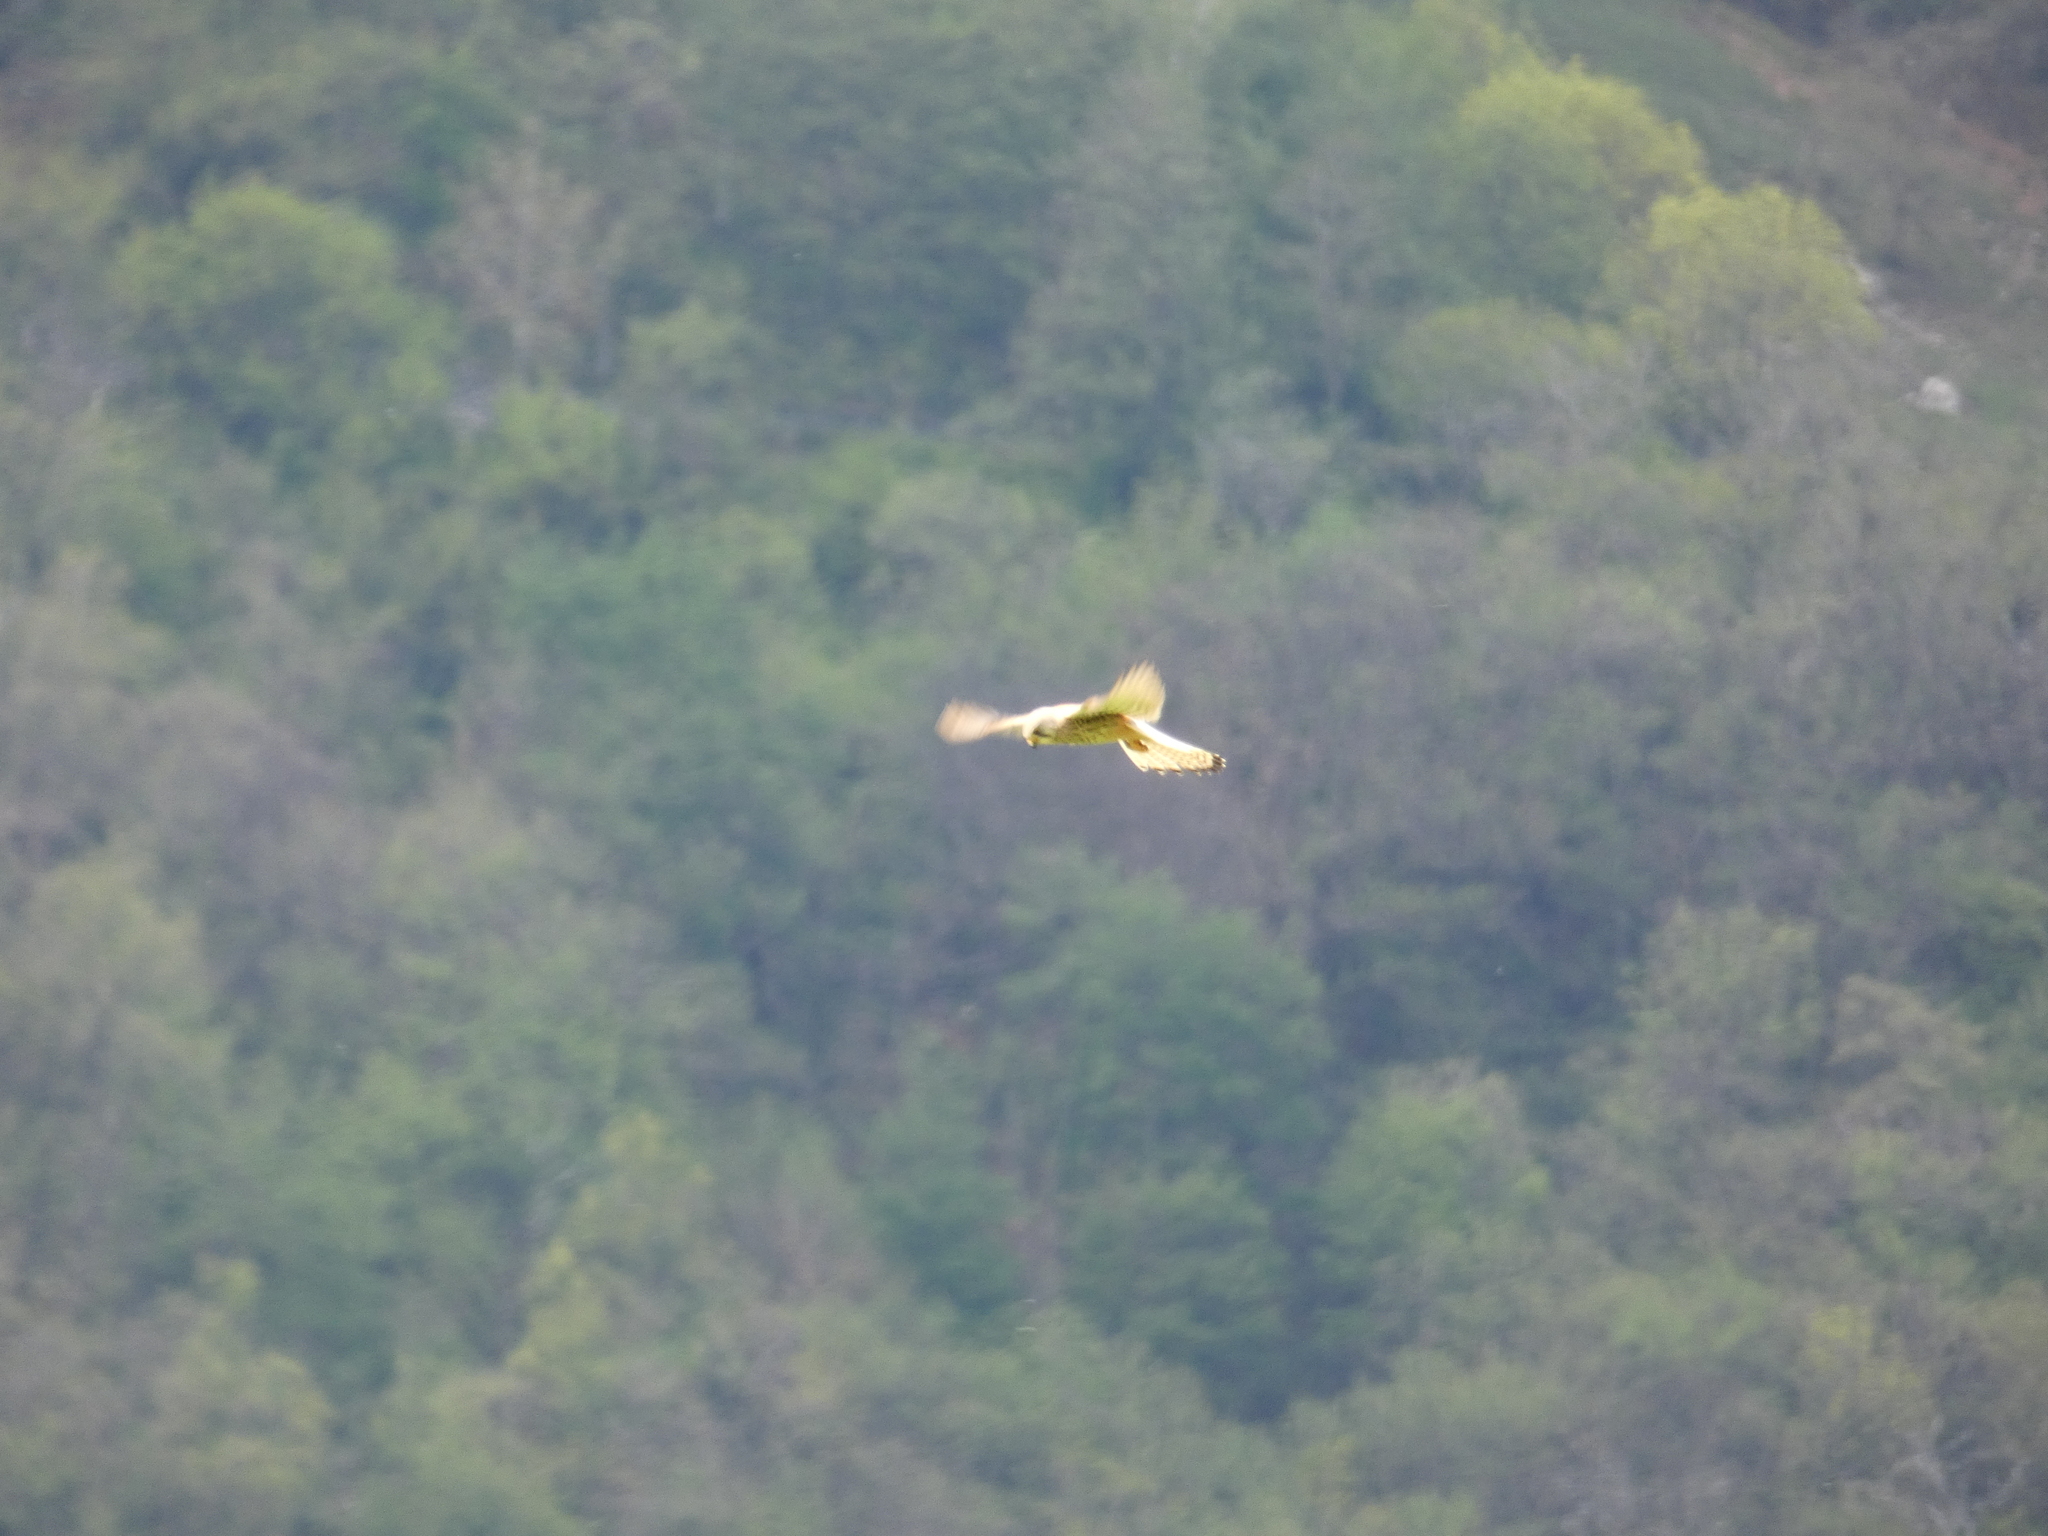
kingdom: Animalia
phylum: Chordata
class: Aves
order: Falconiformes
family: Falconidae
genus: Falco
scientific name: Falco tinnunculus
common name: Common kestrel
